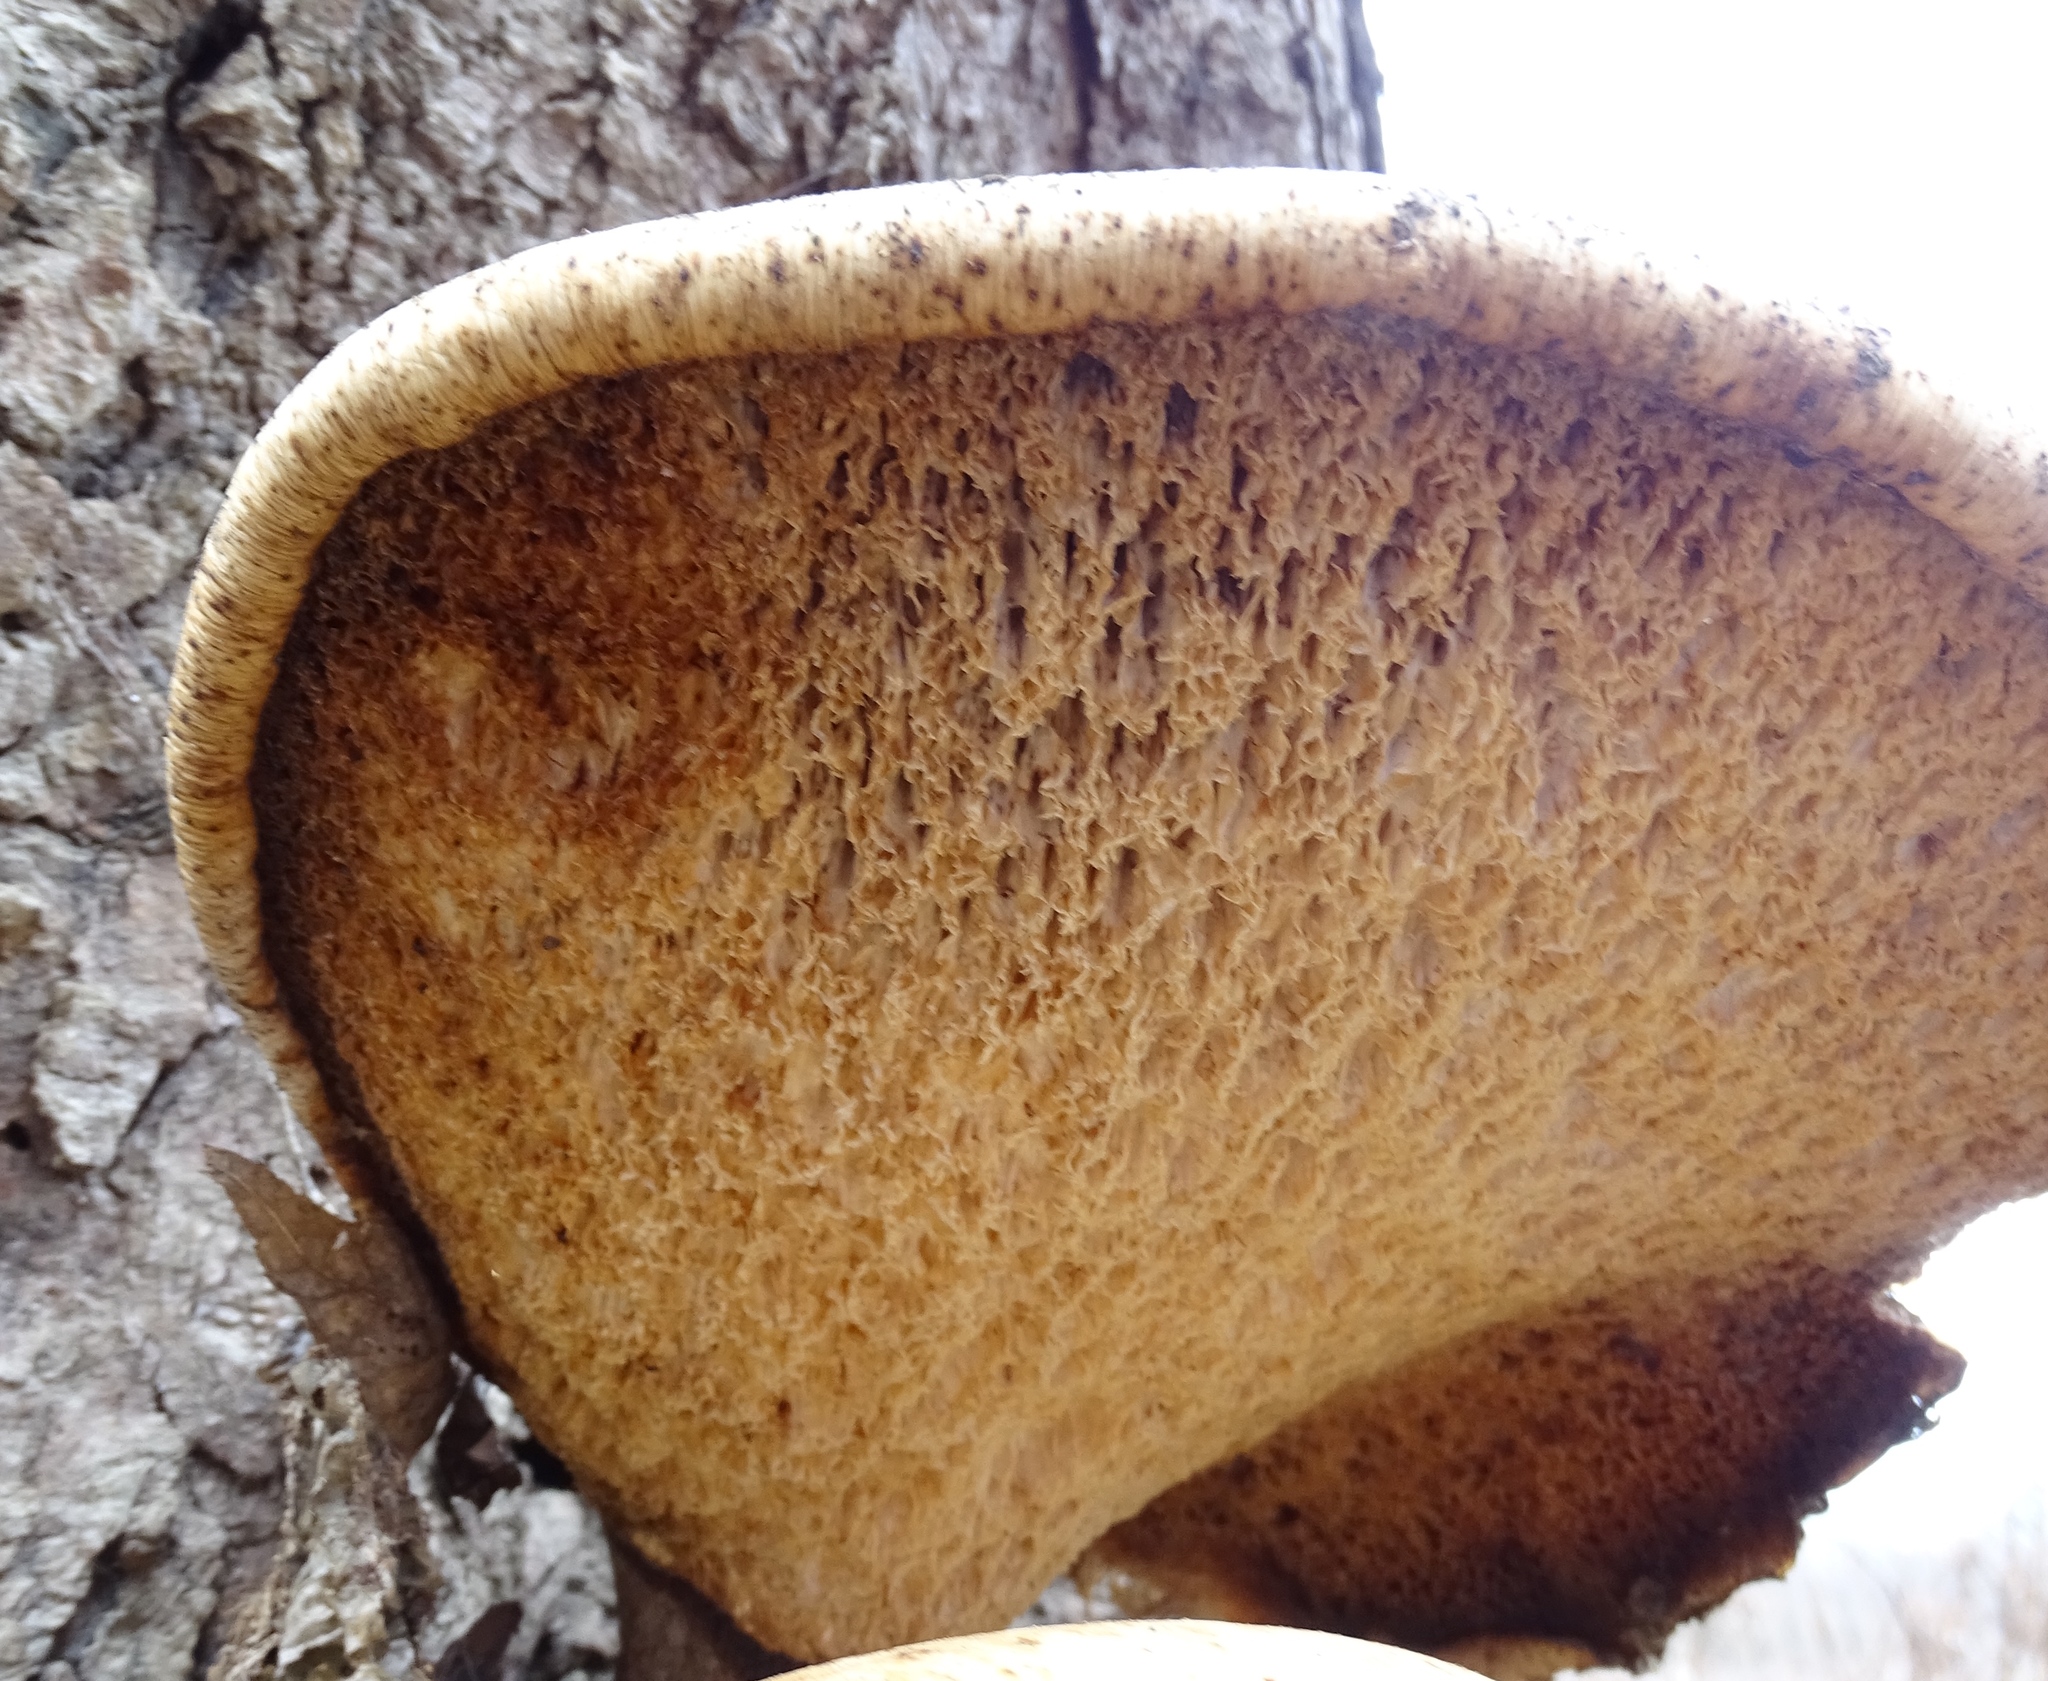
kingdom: Fungi
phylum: Basidiomycota
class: Agaricomycetes
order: Polyporales
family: Polyporaceae
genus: Cerioporus
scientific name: Cerioporus squamosus
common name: Dryad's saddle
